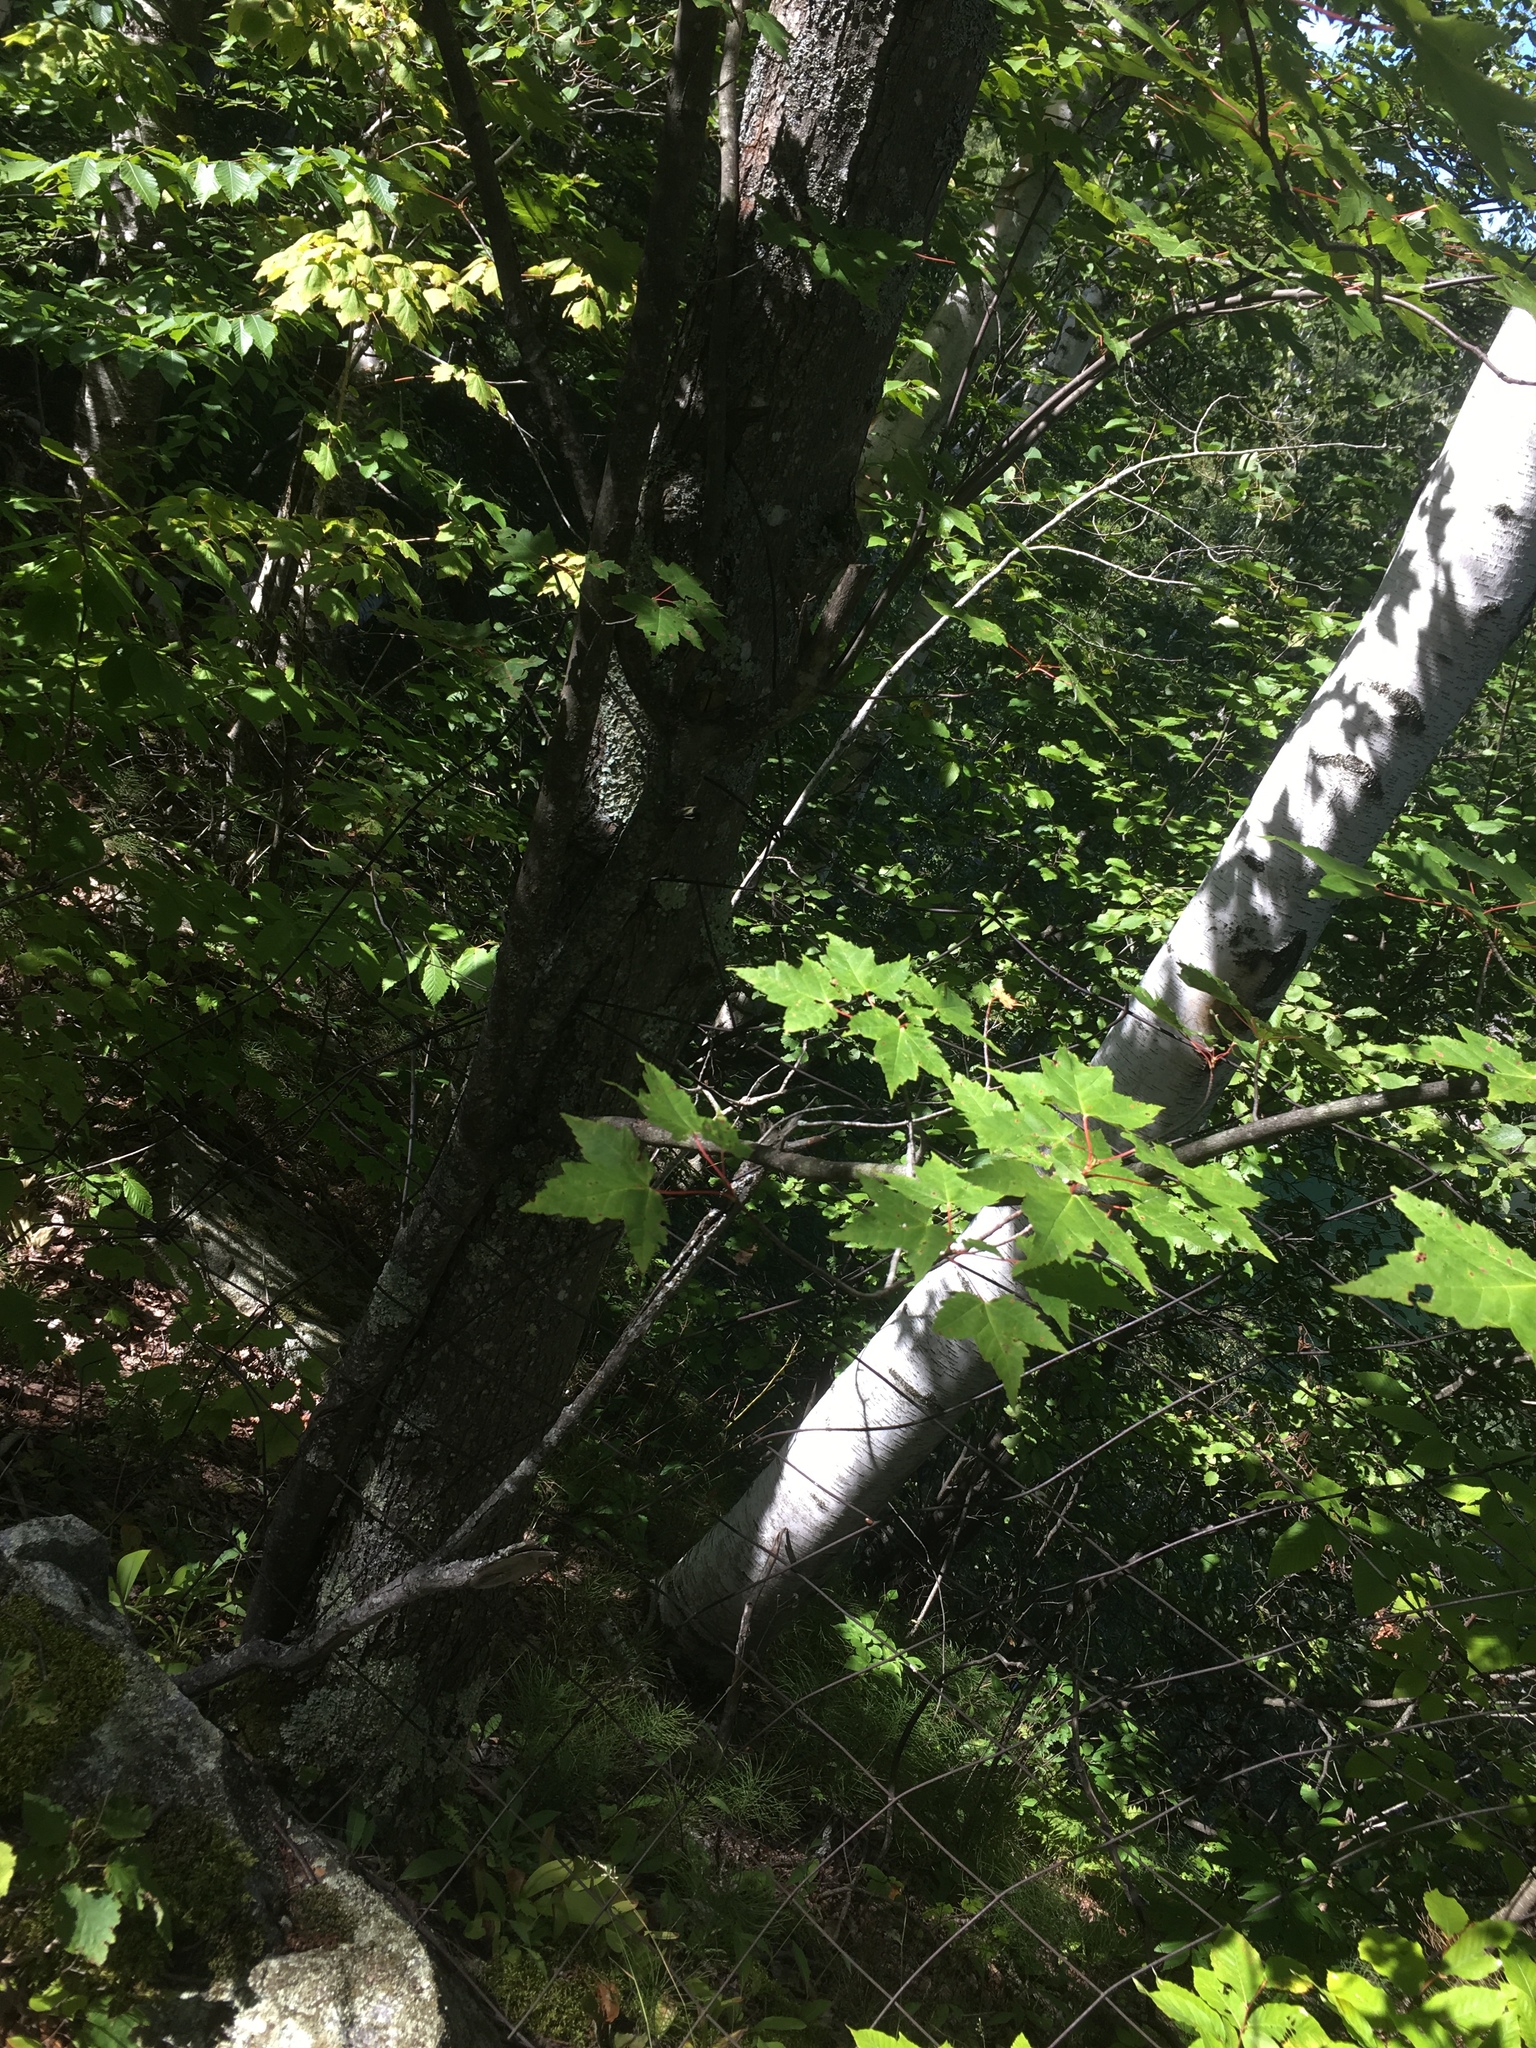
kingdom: Plantae
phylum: Tracheophyta
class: Magnoliopsida
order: Sapindales
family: Sapindaceae
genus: Acer
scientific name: Acer rubrum
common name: Red maple
